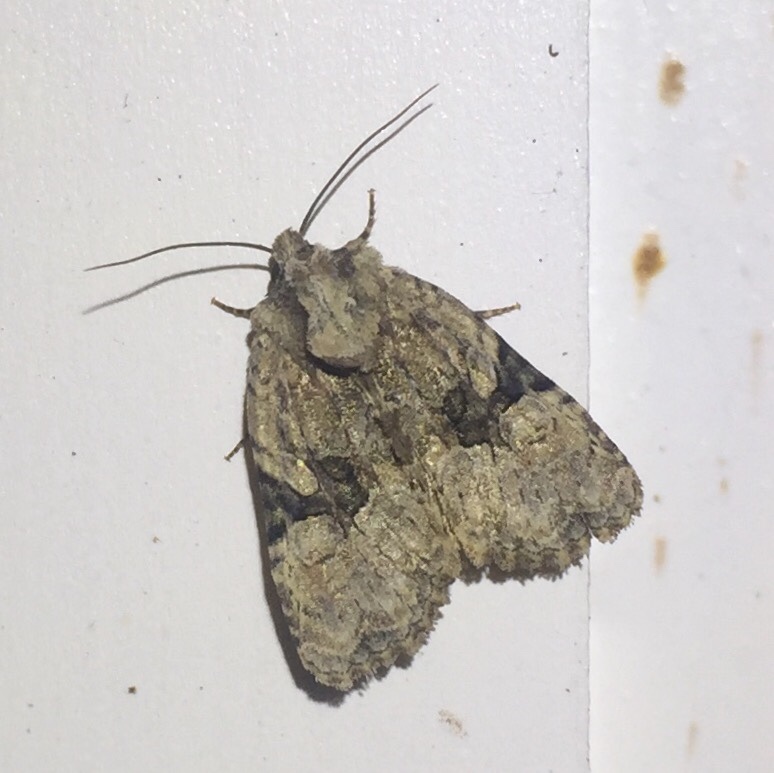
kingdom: Animalia
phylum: Arthropoda
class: Insecta
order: Lepidoptera
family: Noctuidae
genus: Oligia
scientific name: Oligia modica
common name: Black-banded brocade
